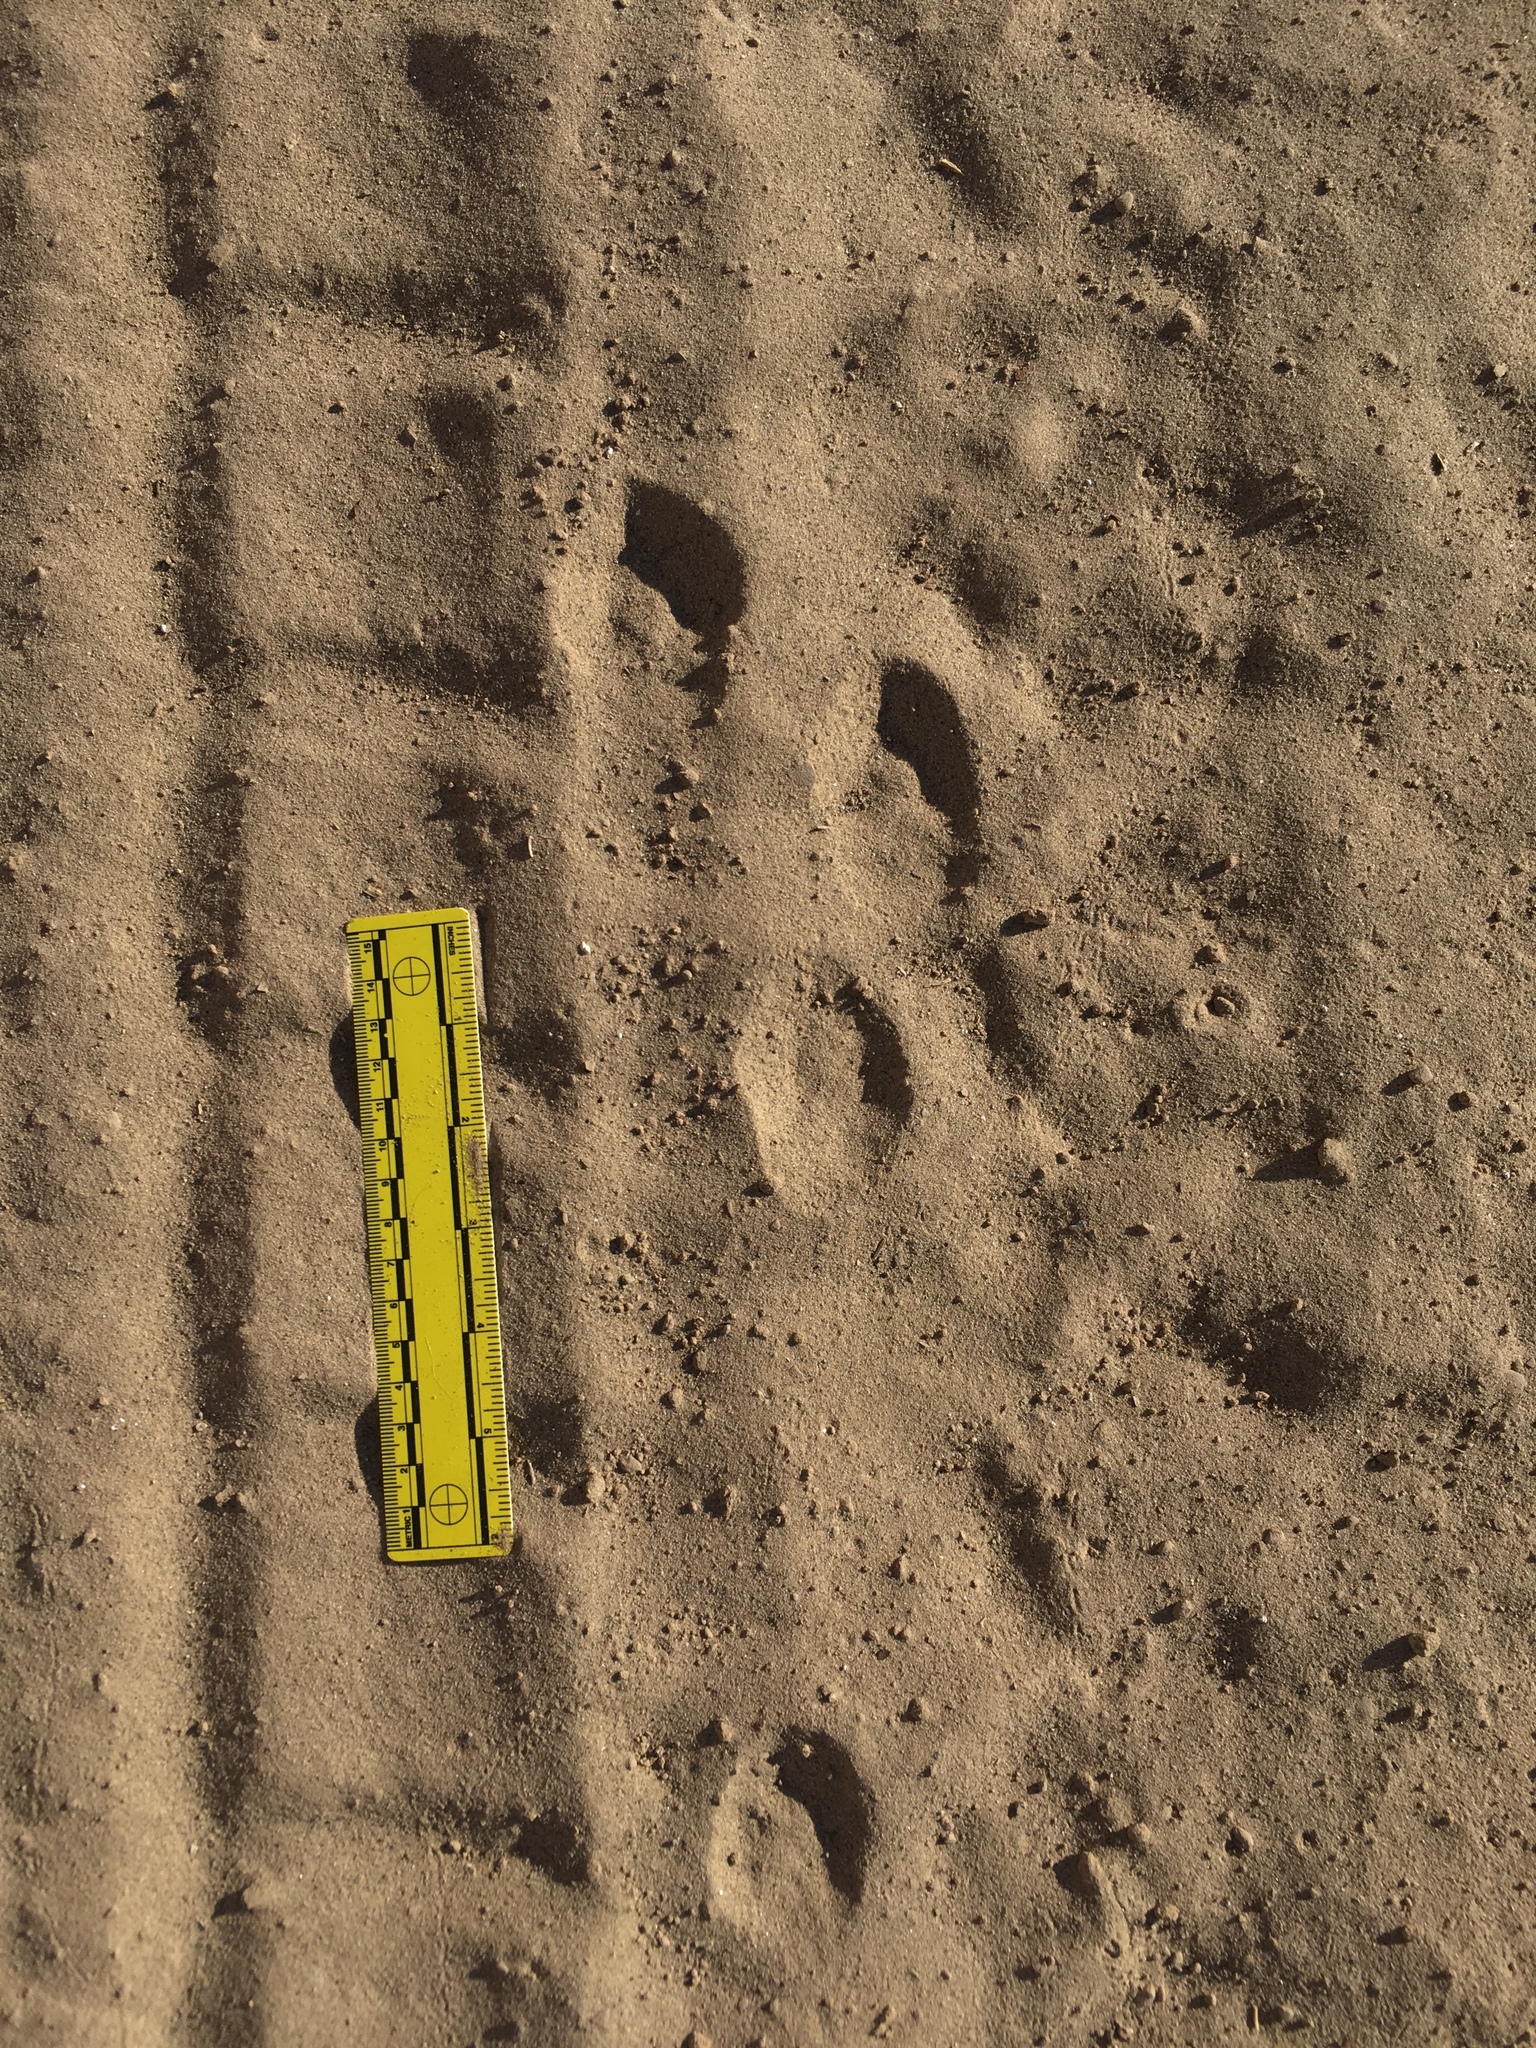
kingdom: Animalia
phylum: Chordata
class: Mammalia
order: Lagomorpha
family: Leporidae
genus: Lepus
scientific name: Lepus californicus
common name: Black-tailed jackrabbit
